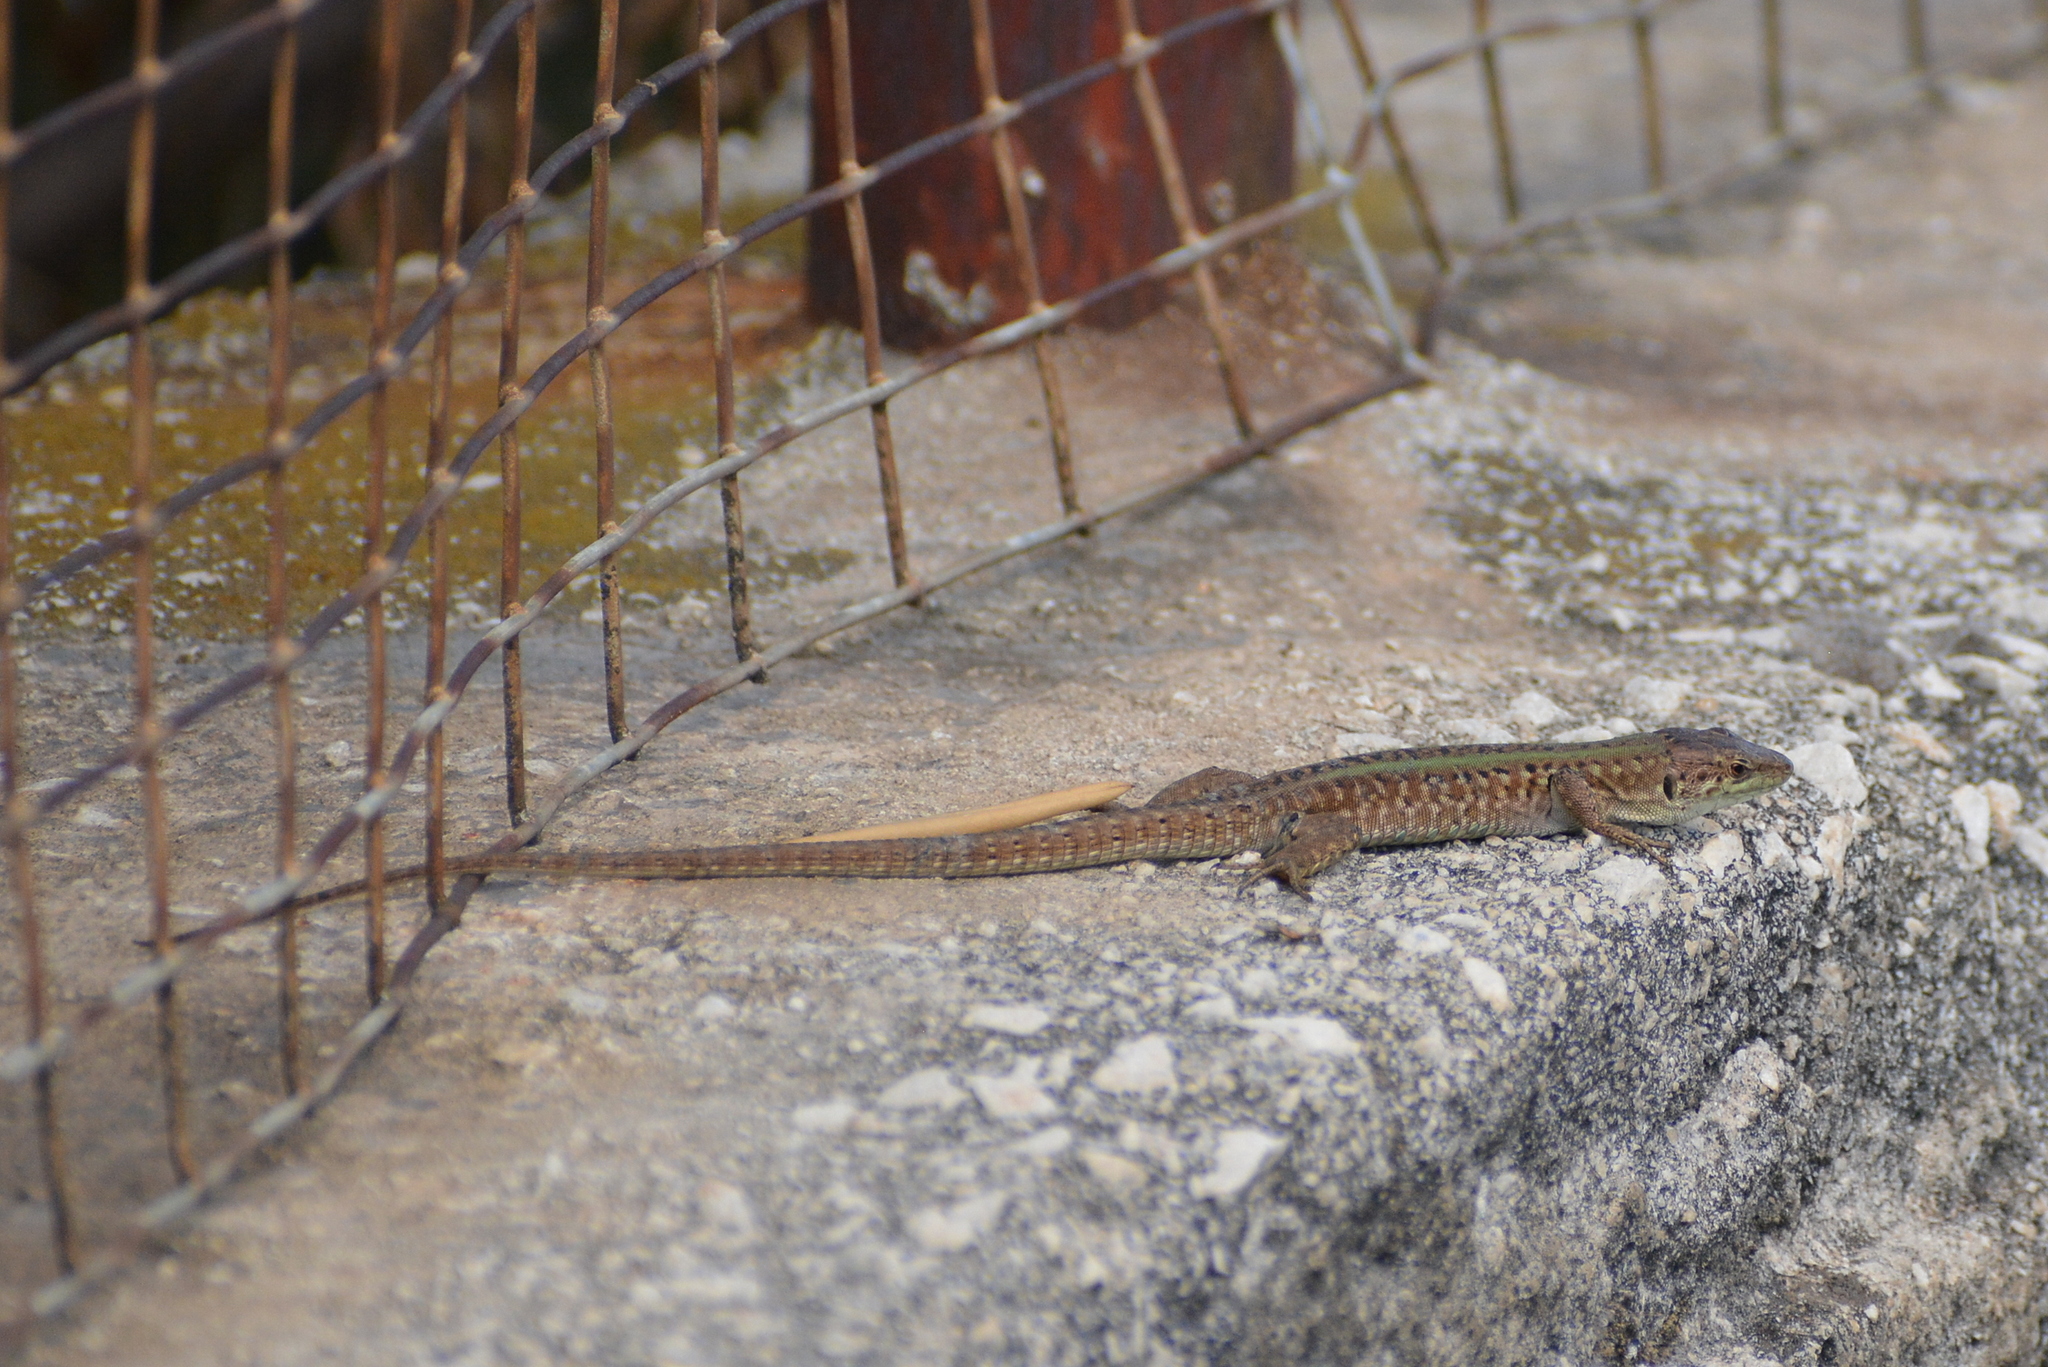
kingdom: Animalia
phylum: Chordata
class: Squamata
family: Lacertidae
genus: Podarcis
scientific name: Podarcis siculus
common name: Italian wall lizard
